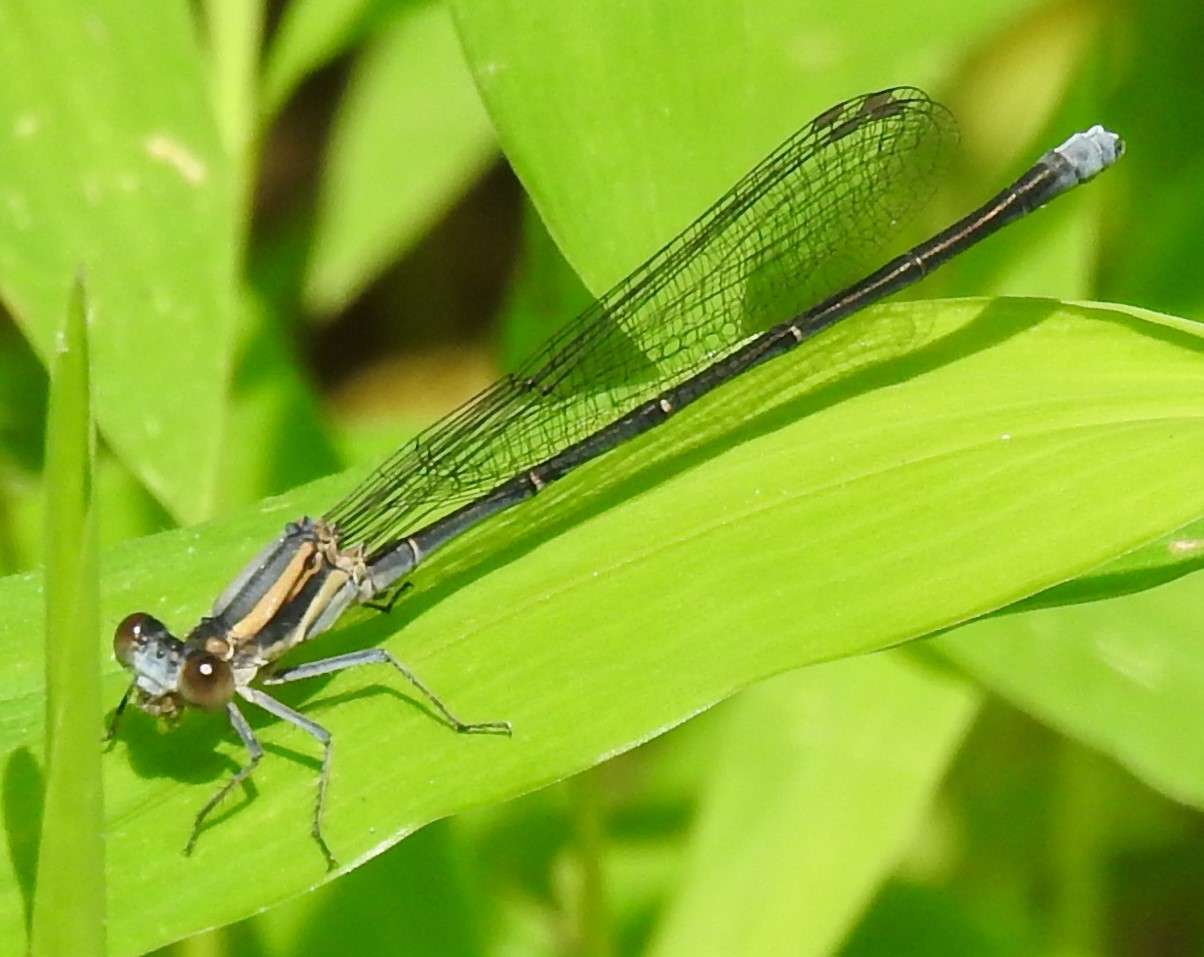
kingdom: Animalia
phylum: Arthropoda
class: Insecta
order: Odonata
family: Coenagrionidae
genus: Argia
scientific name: Argia moesta
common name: Powdered dancer
